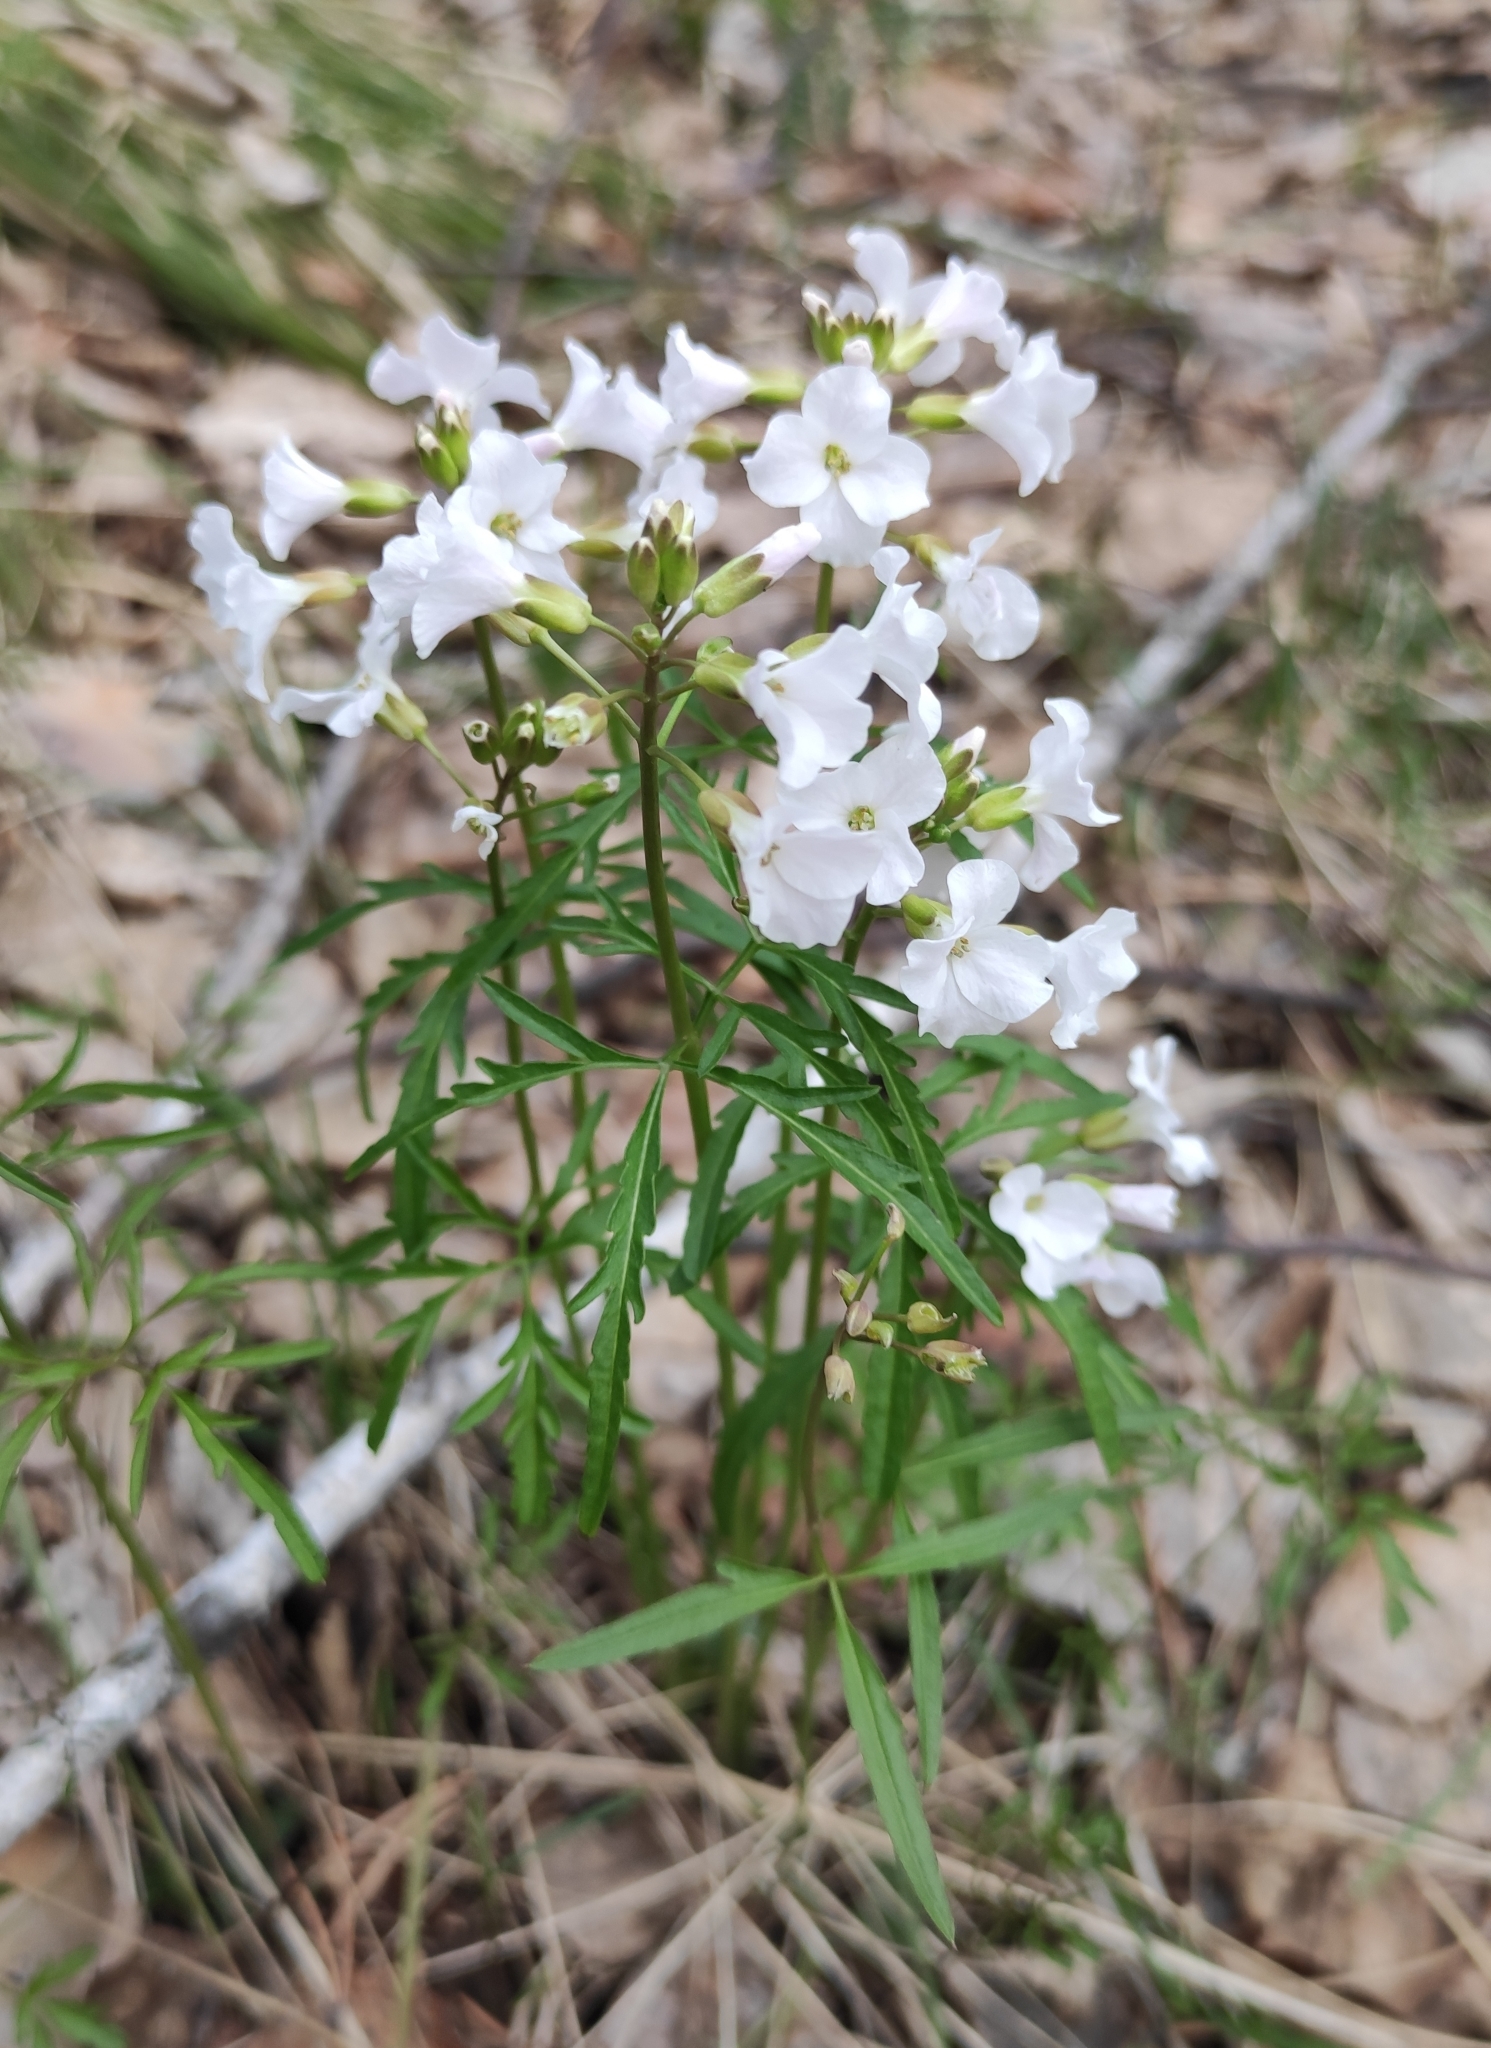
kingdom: Plantae
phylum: Tracheophyta
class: Magnoliopsida
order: Brassicales
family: Brassicaceae
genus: Cardamine
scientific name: Cardamine trifida
